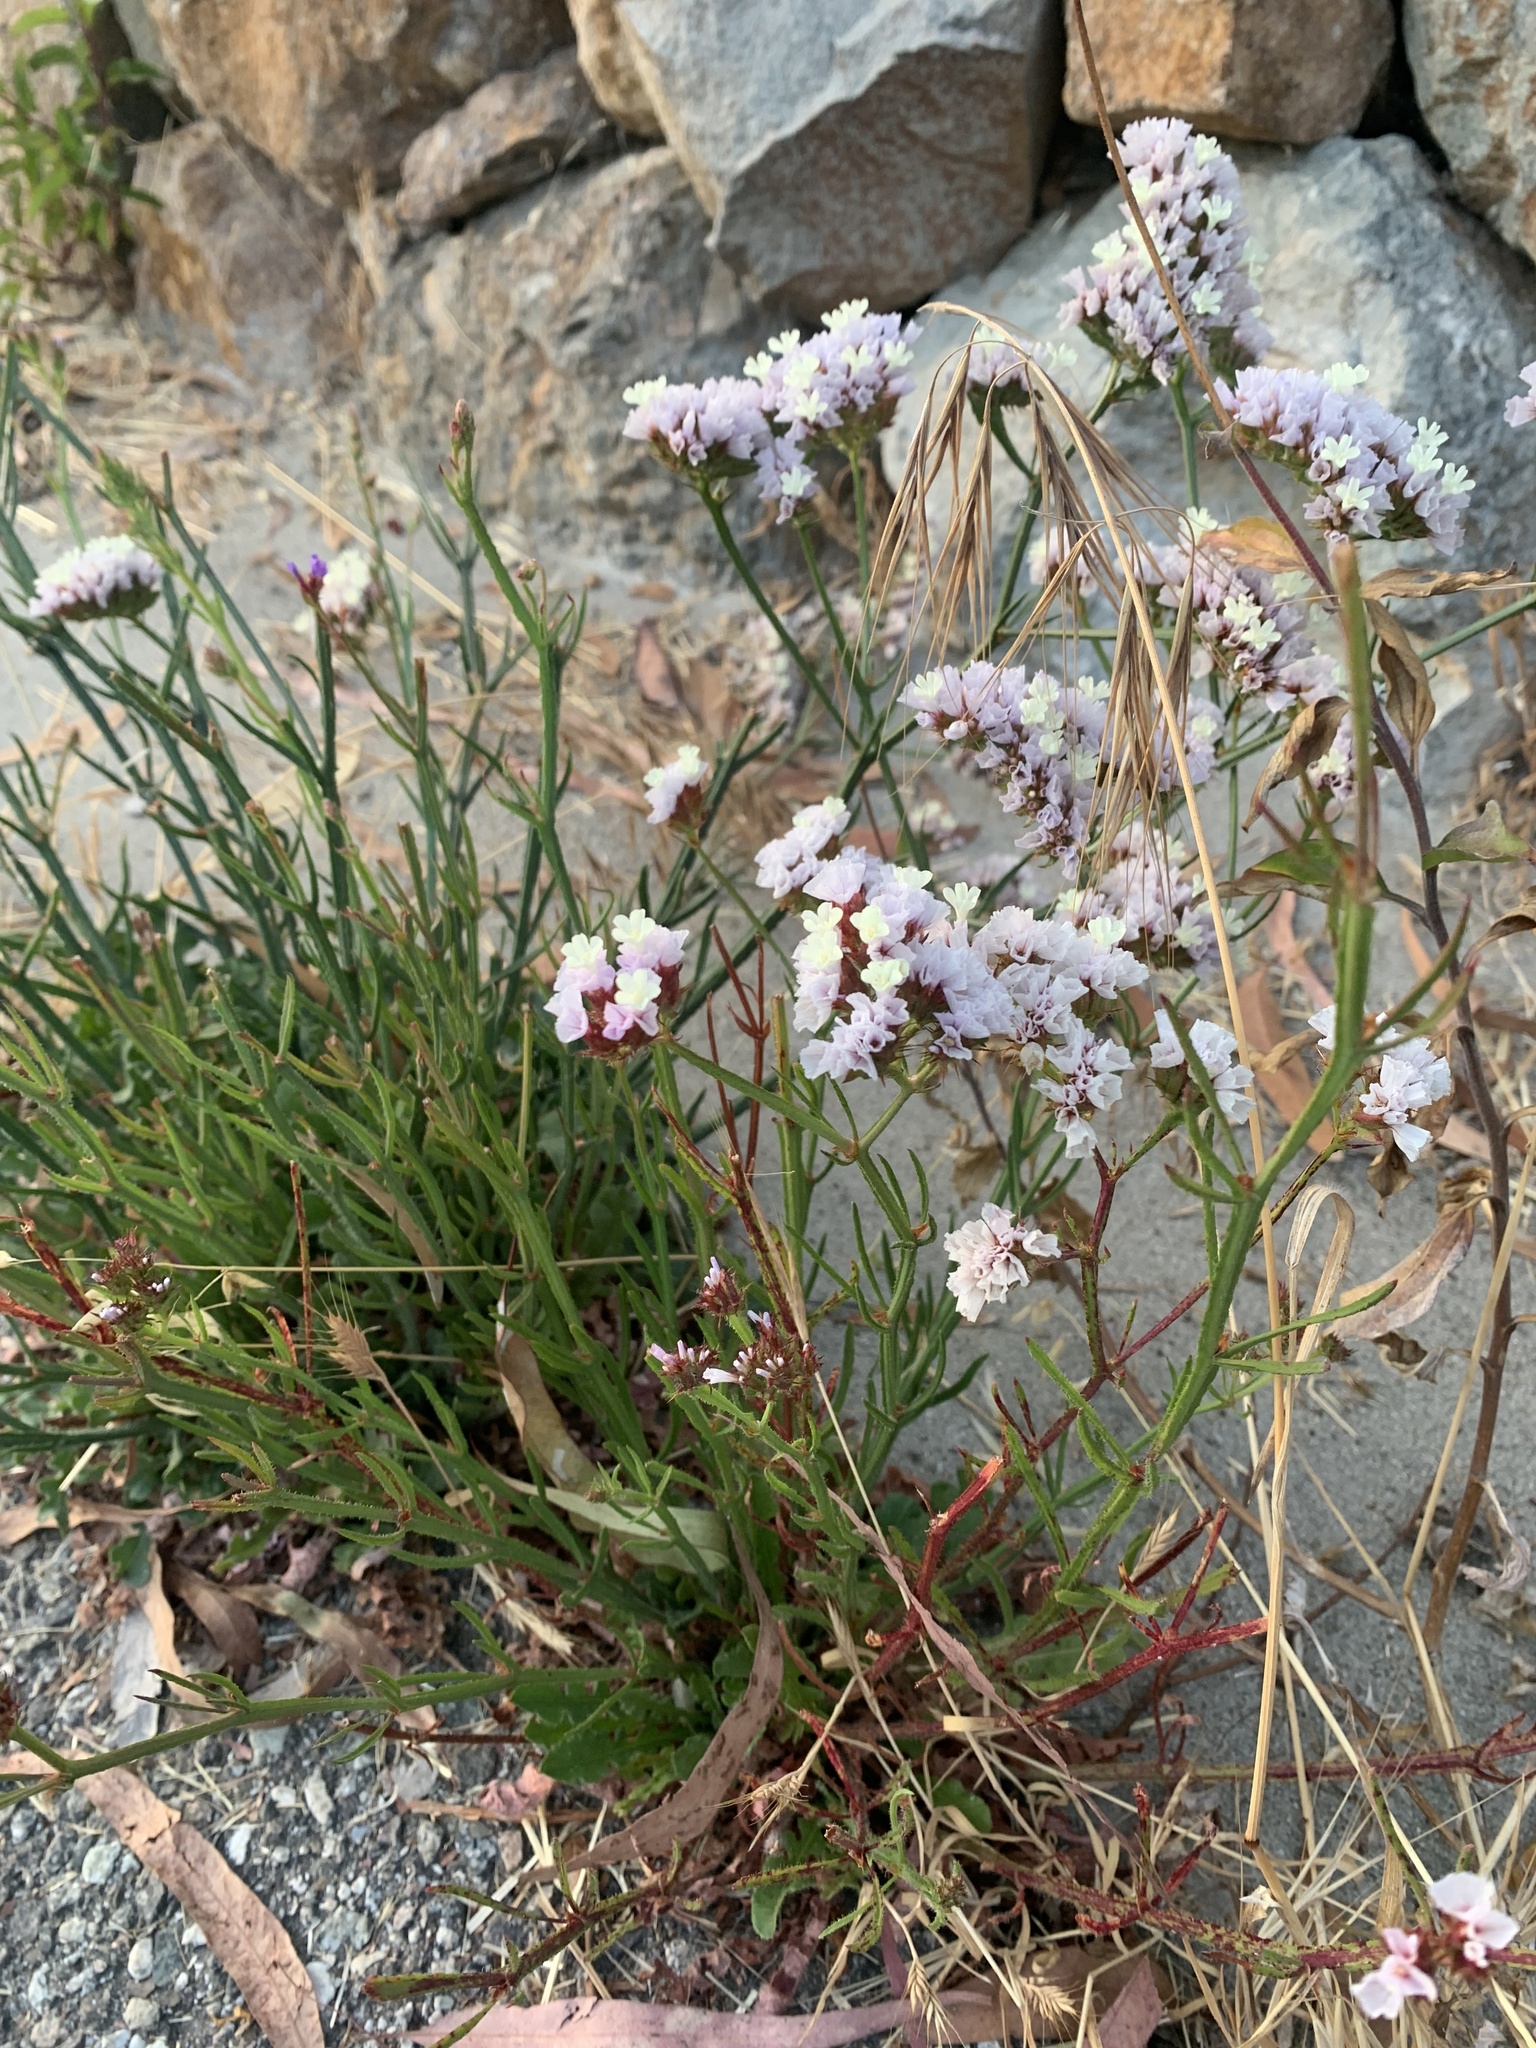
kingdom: Plantae
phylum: Tracheophyta
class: Magnoliopsida
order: Caryophyllales
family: Plumbaginaceae
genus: Limonium
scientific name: Limonium sinuatum
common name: Statice
